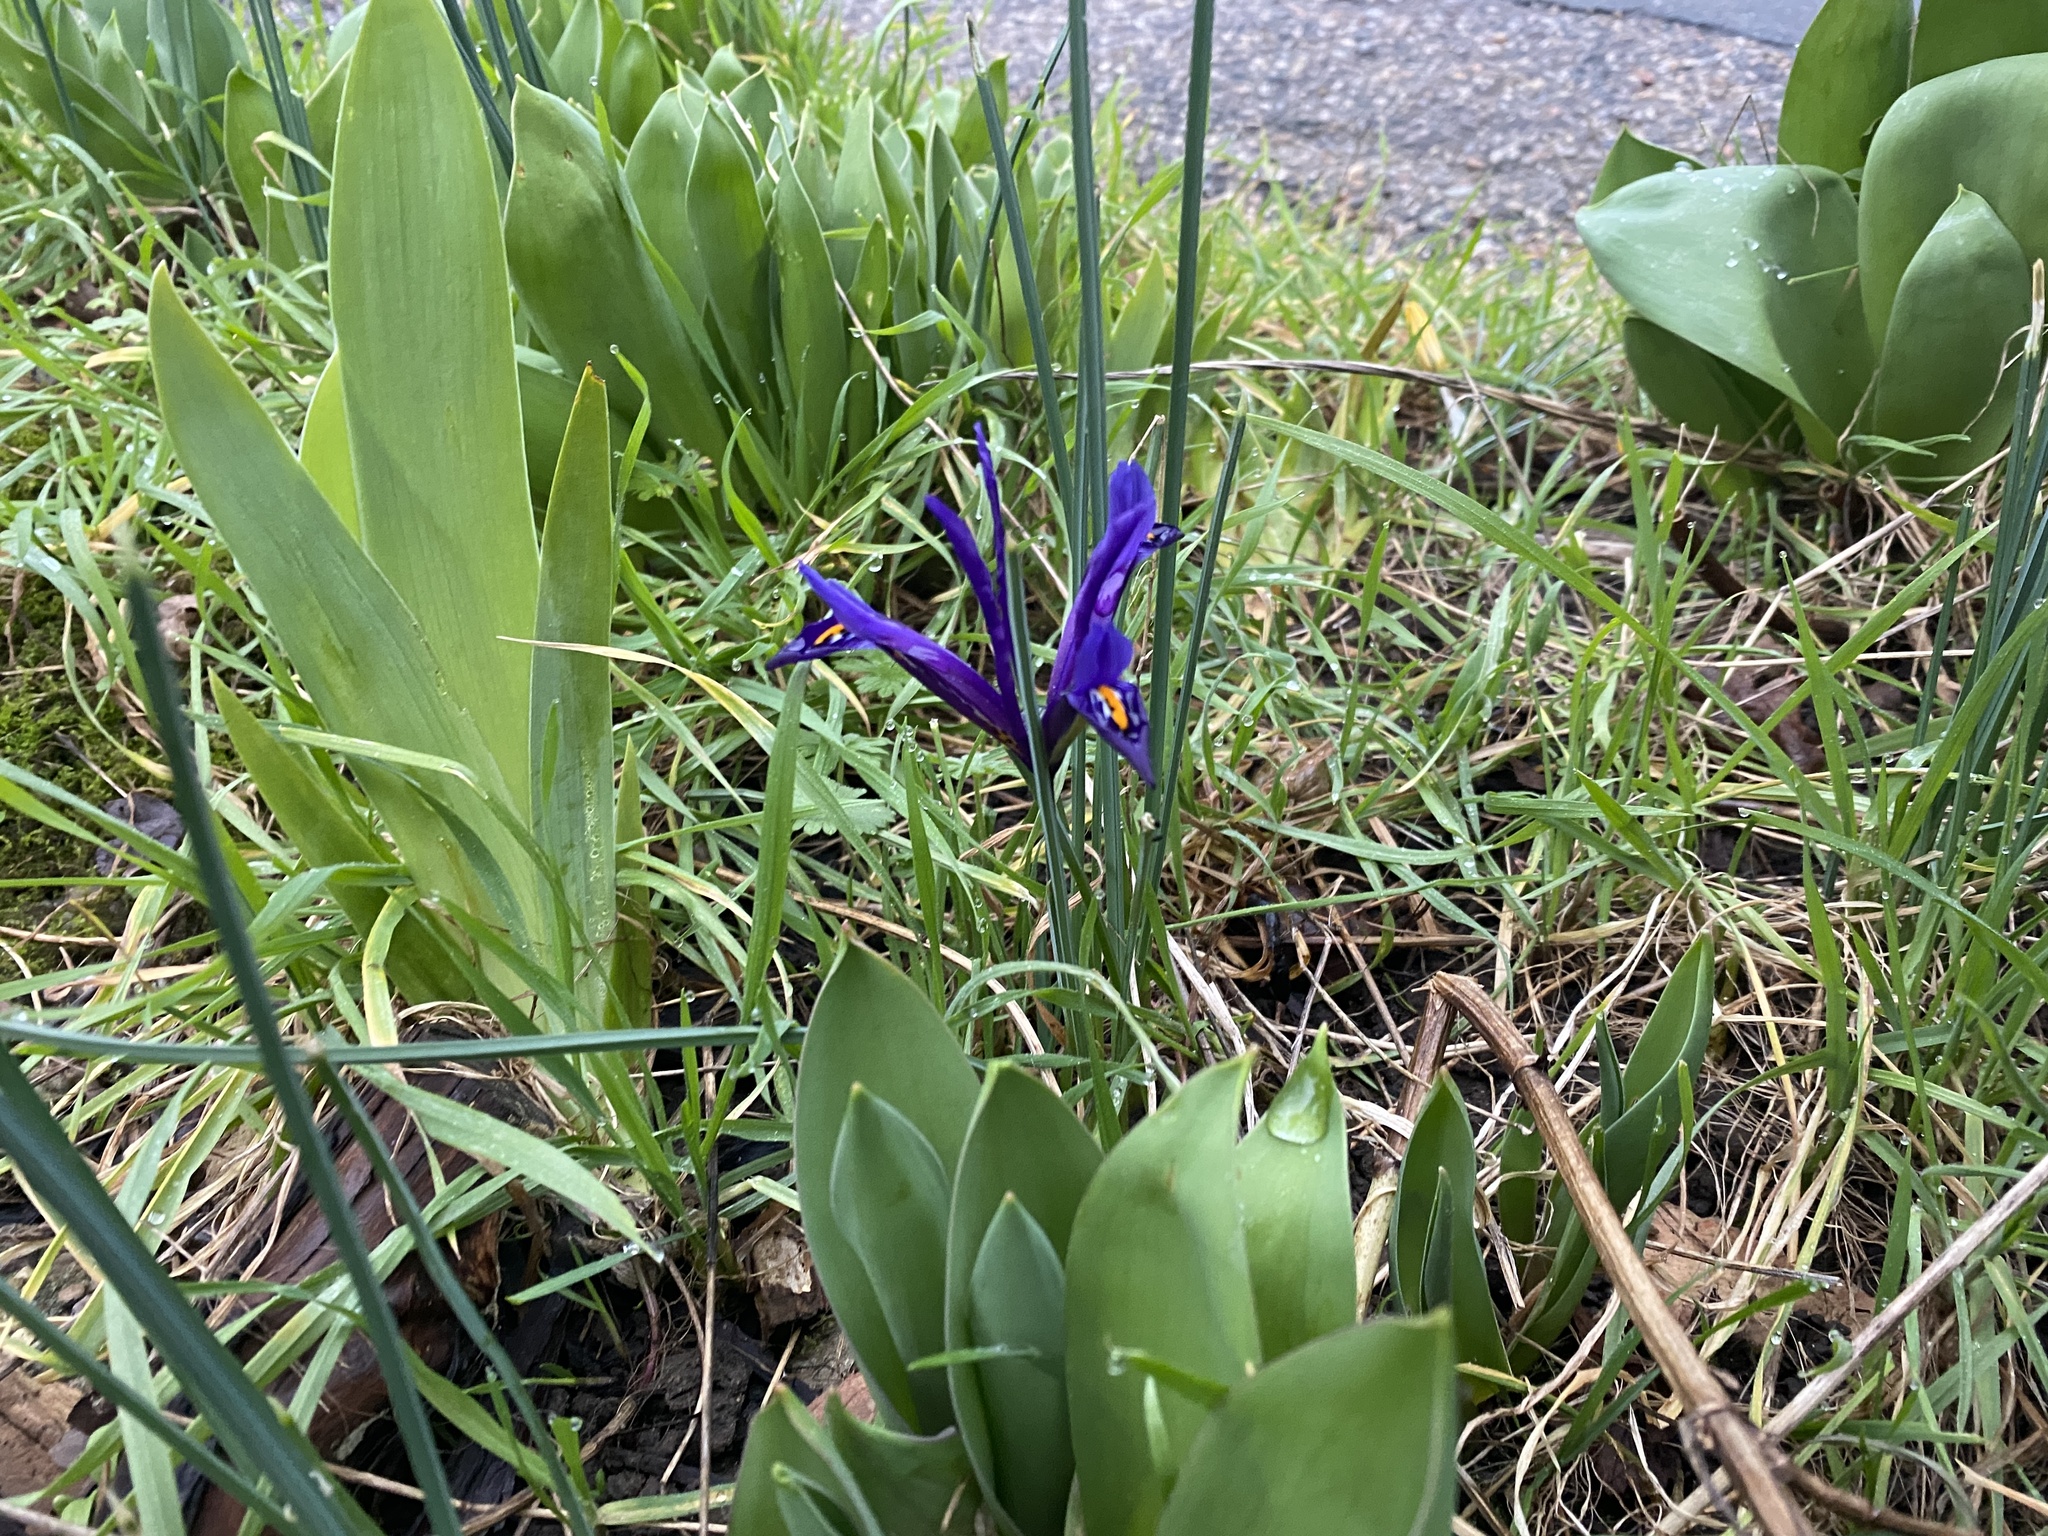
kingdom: Plantae
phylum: Tracheophyta
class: Liliopsida
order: Asparagales
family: Iridaceae
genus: Iris
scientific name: Iris reticulata
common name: Netted iris
